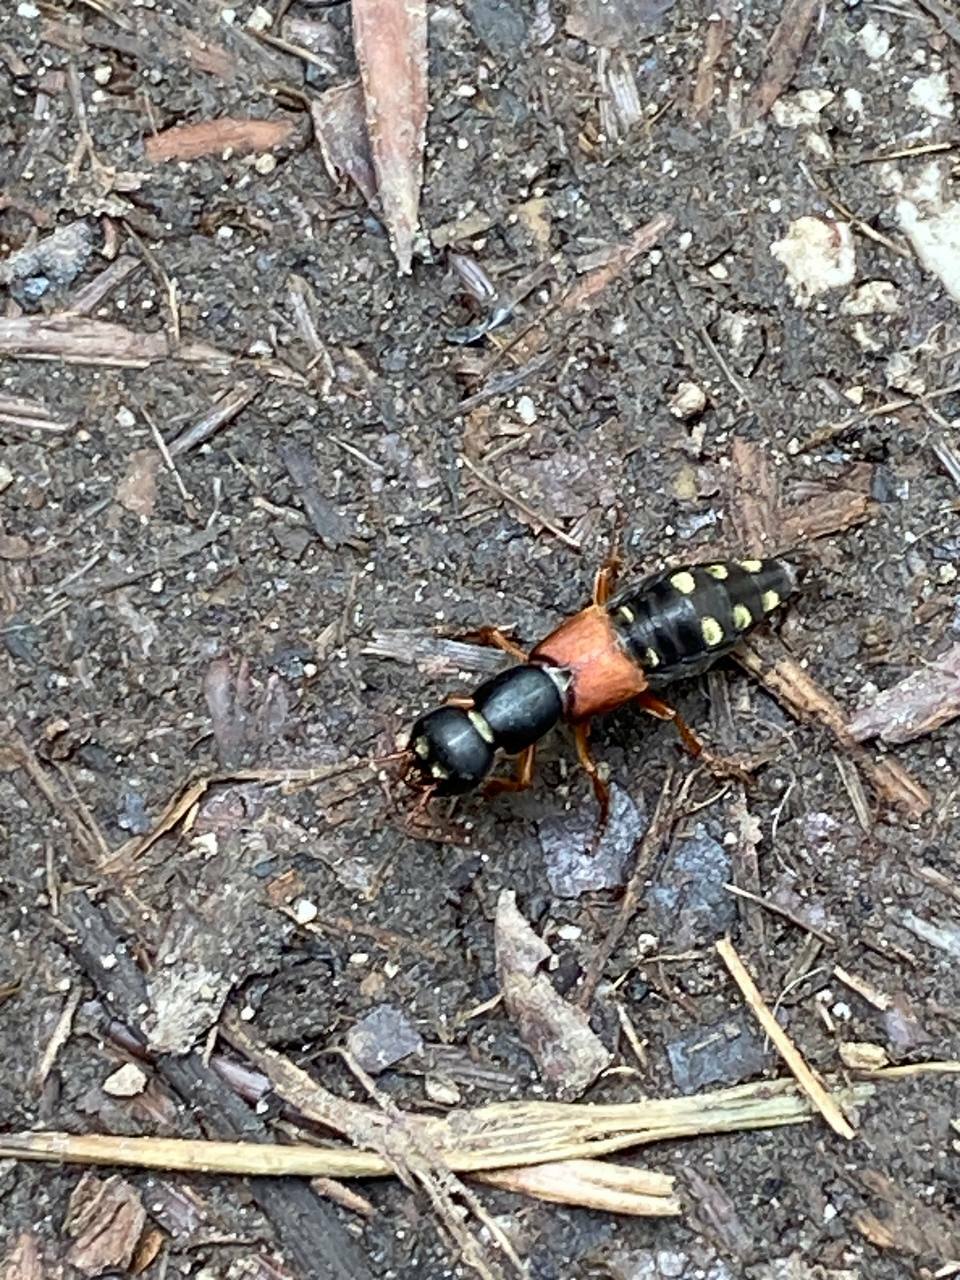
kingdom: Animalia
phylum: Arthropoda
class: Insecta
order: Coleoptera
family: Staphylinidae
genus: Staphylinus
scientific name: Staphylinus erythropterus
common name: Staph beetle
